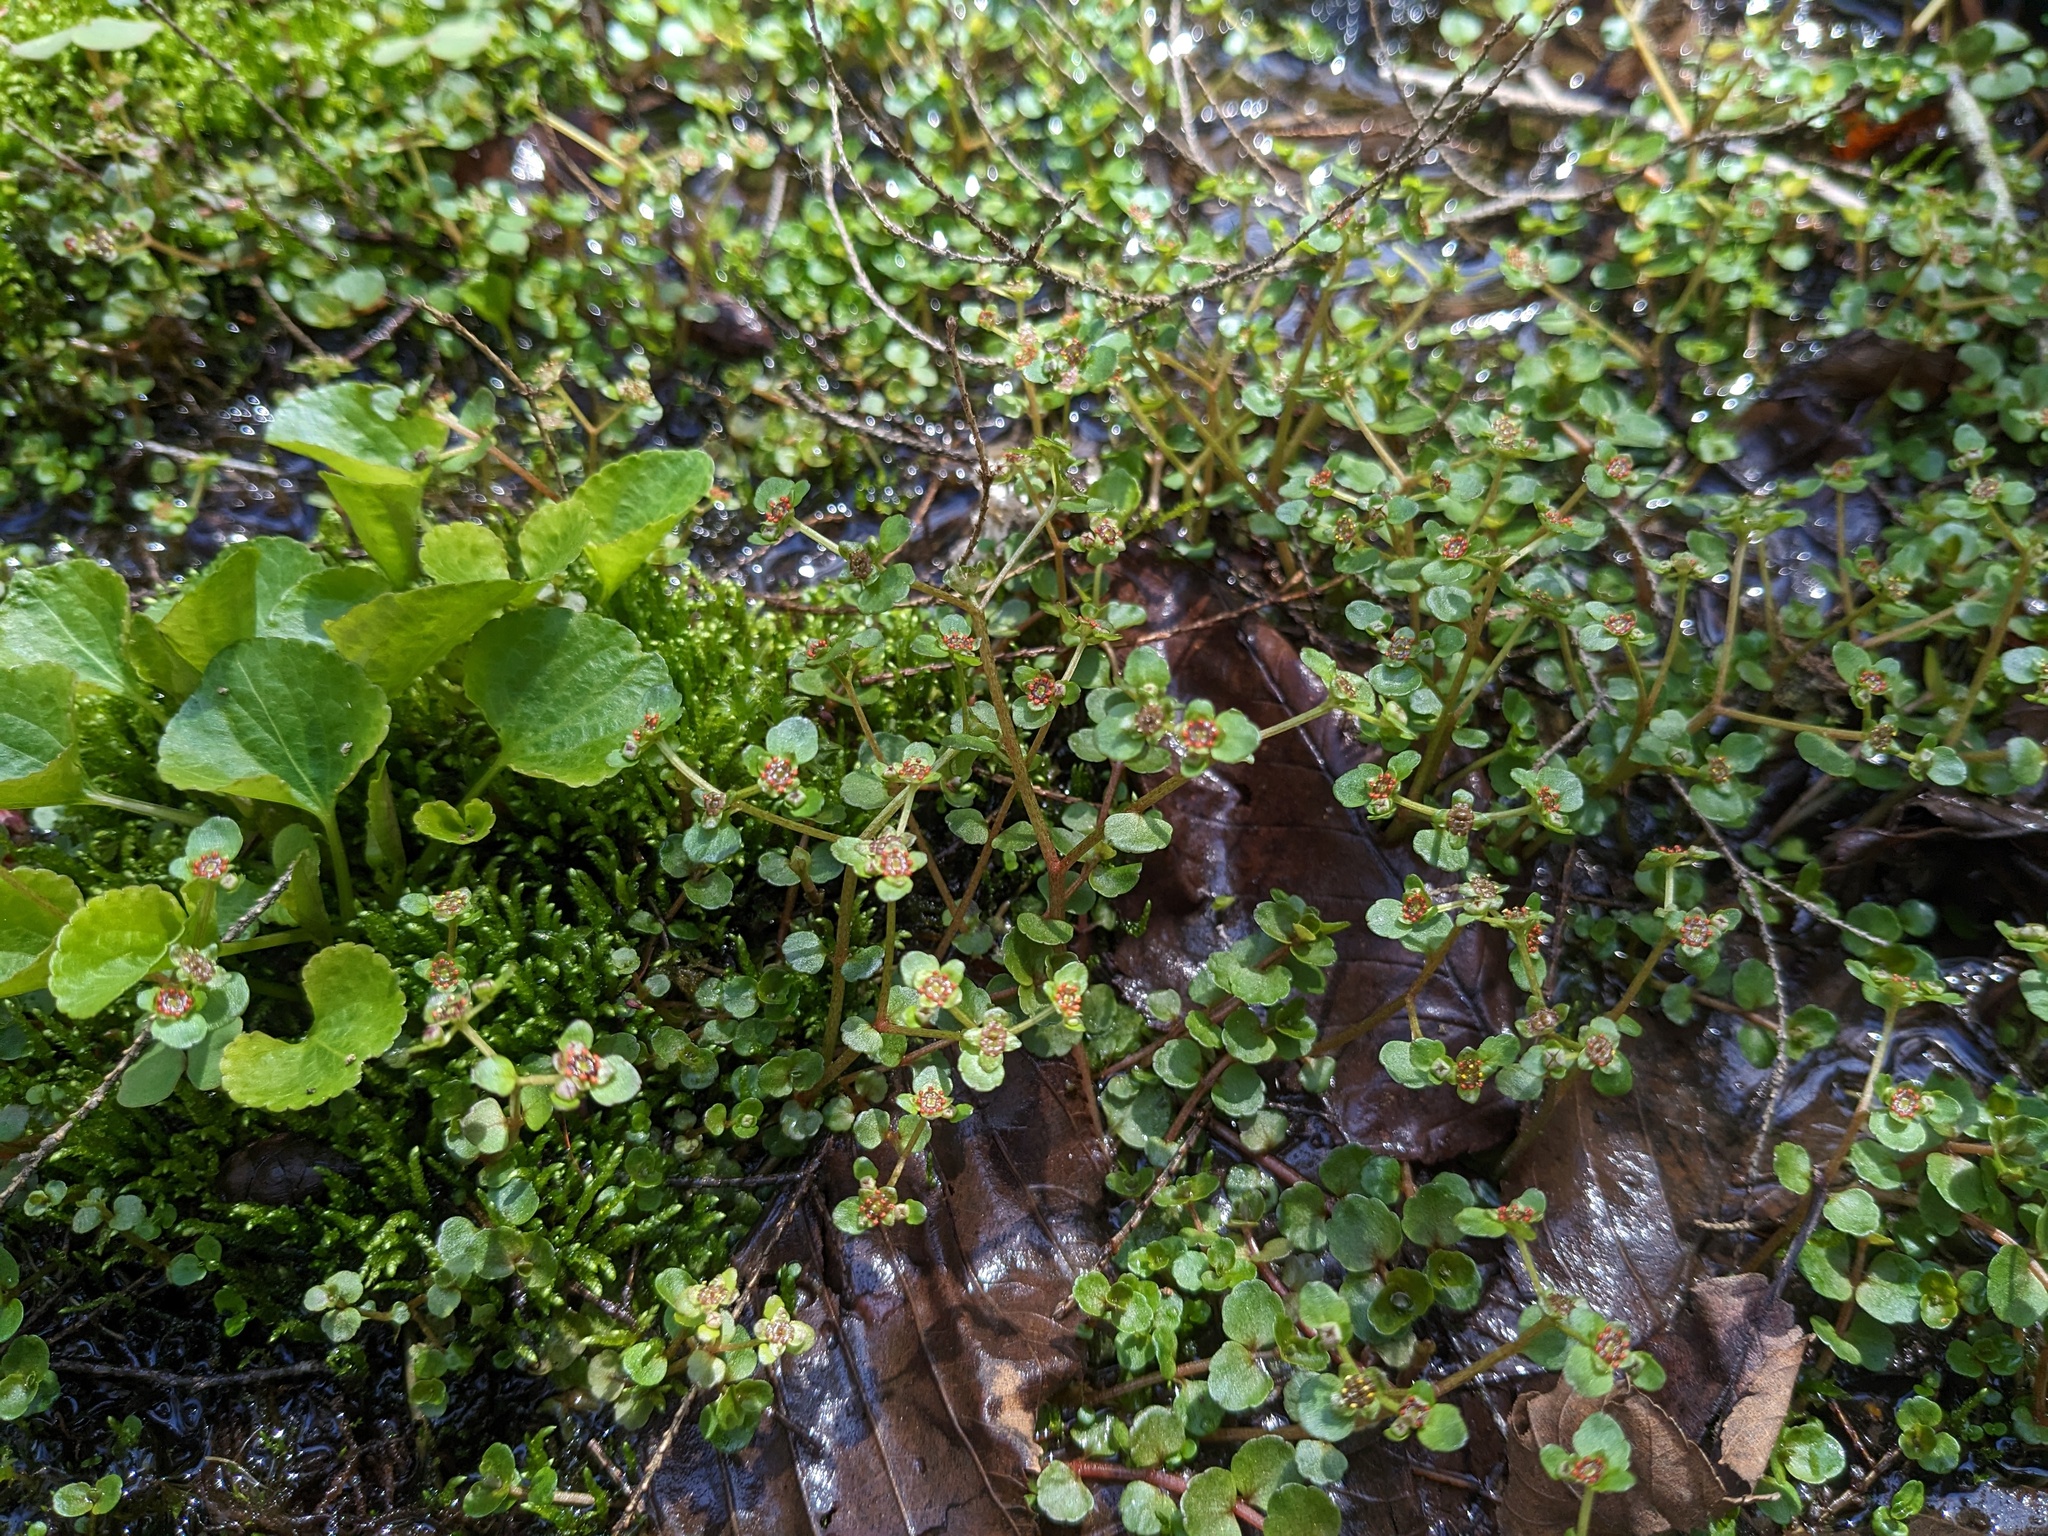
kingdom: Plantae
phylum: Tracheophyta
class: Magnoliopsida
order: Saxifragales
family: Saxifragaceae
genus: Chrysosplenium
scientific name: Chrysosplenium americanum
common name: American golden-saxifrage
